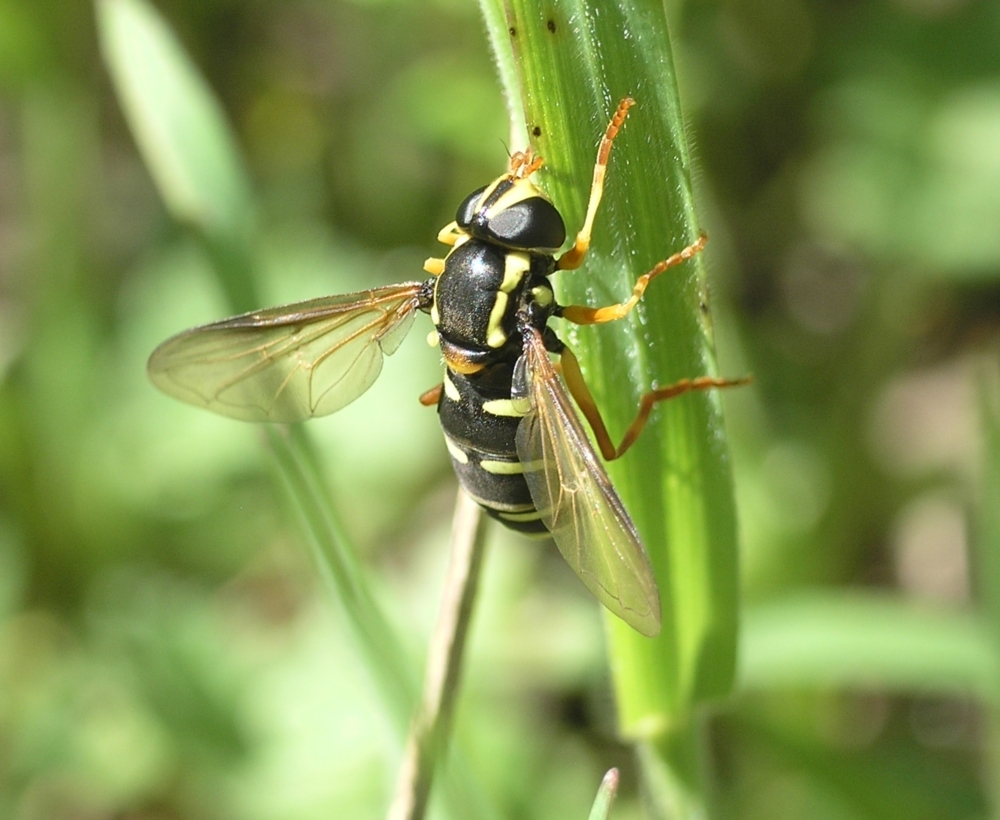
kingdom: Animalia
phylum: Arthropoda
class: Insecta
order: Diptera
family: Syrphidae
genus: Philhelius
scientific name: Philhelius citrofasciata
